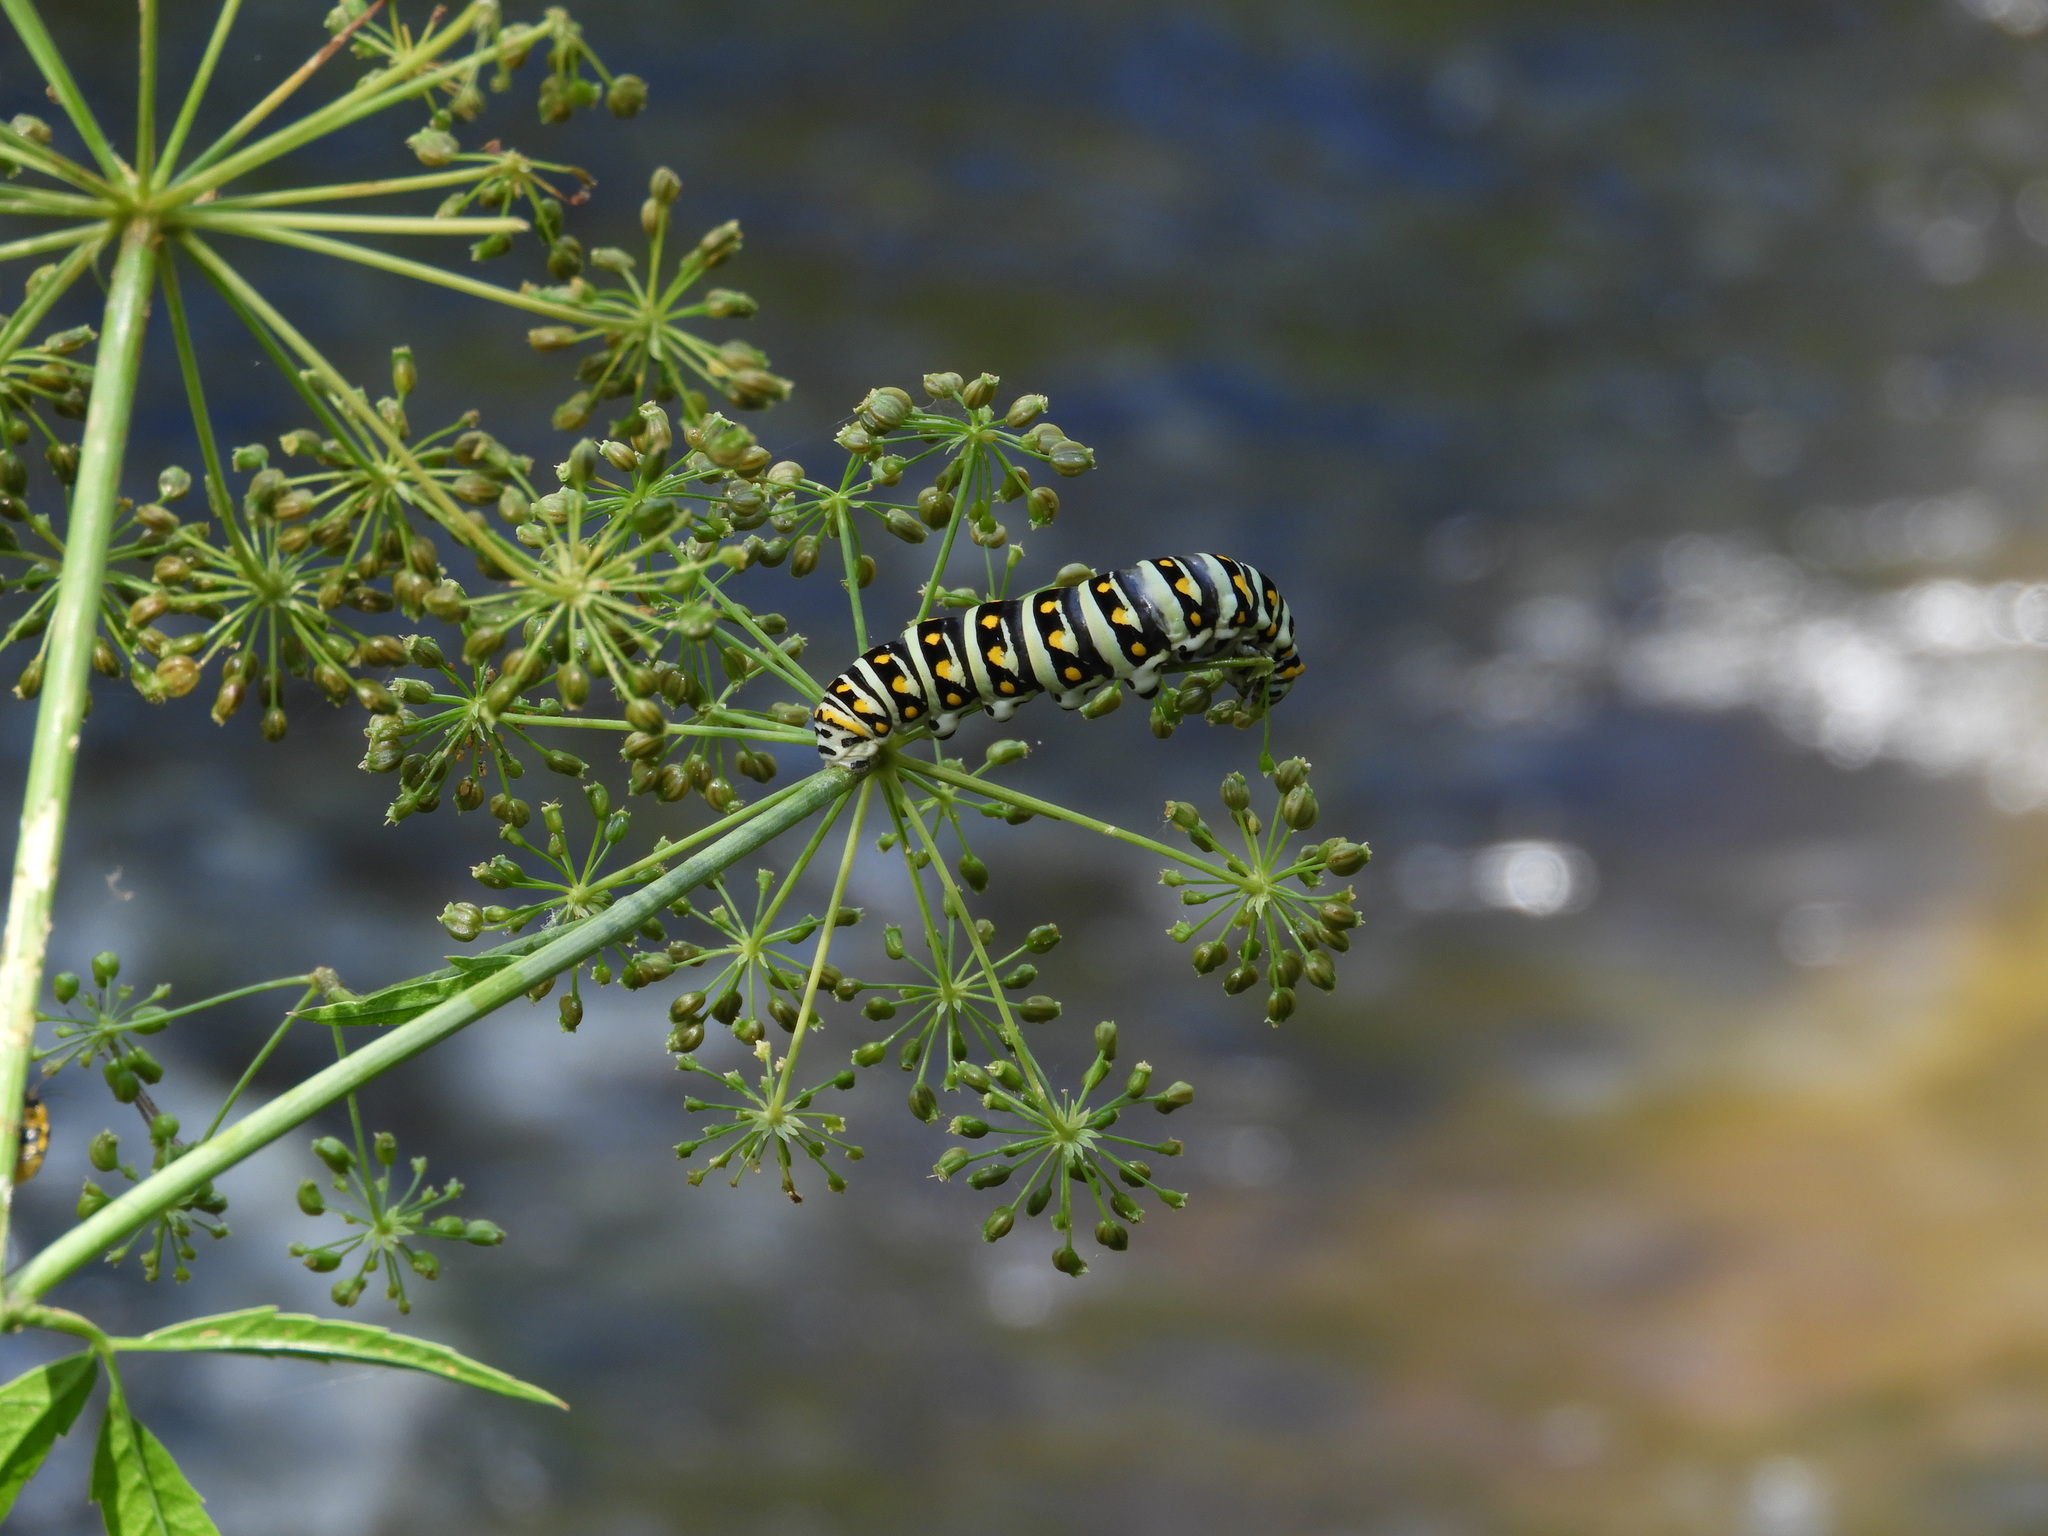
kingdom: Animalia
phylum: Arthropoda
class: Insecta
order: Lepidoptera
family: Papilionidae
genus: Papilio
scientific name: Papilio polyxenes
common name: Black swallowtail
